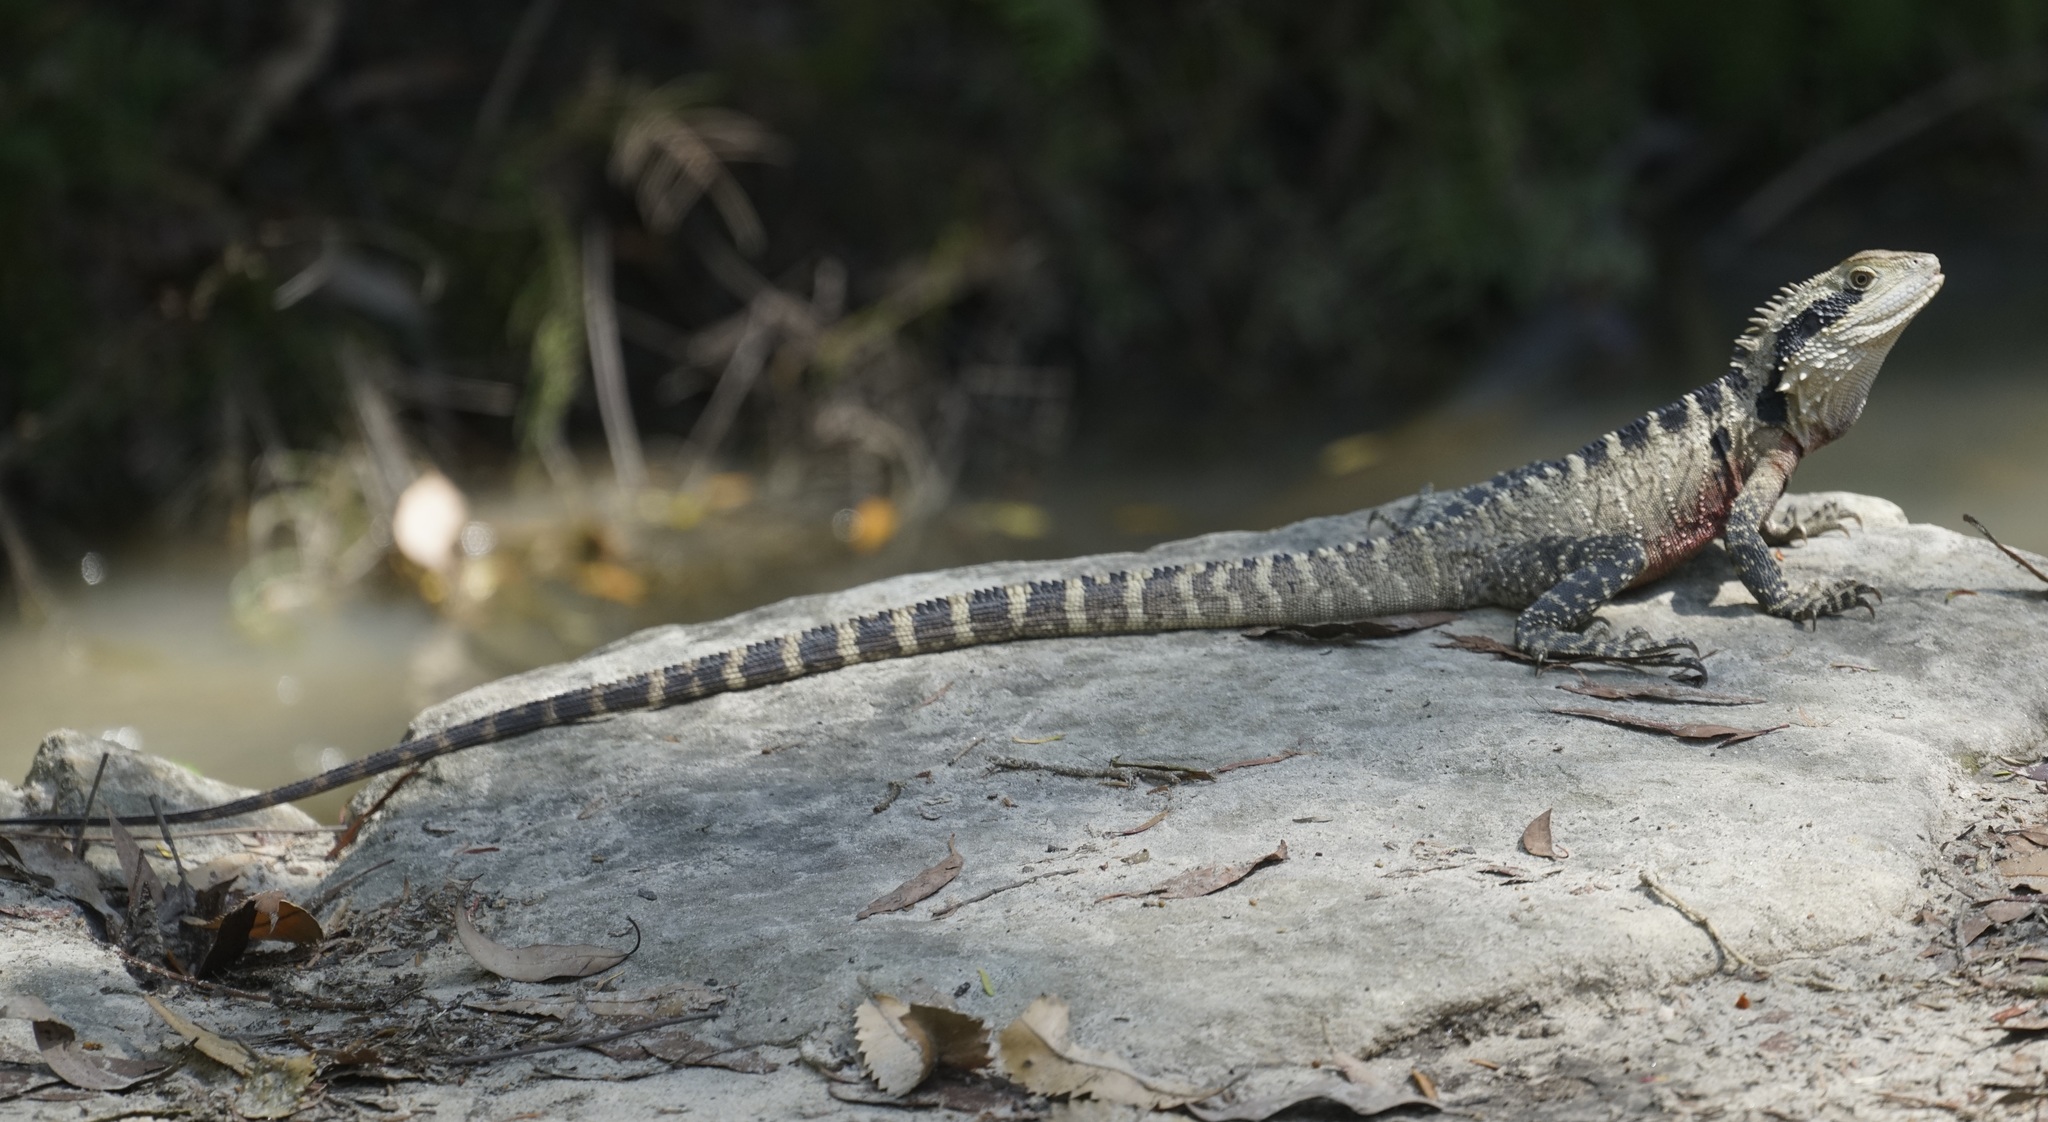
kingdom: Animalia
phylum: Chordata
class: Squamata
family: Agamidae
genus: Intellagama
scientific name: Intellagama lesueurii
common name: Eastern water dragon
